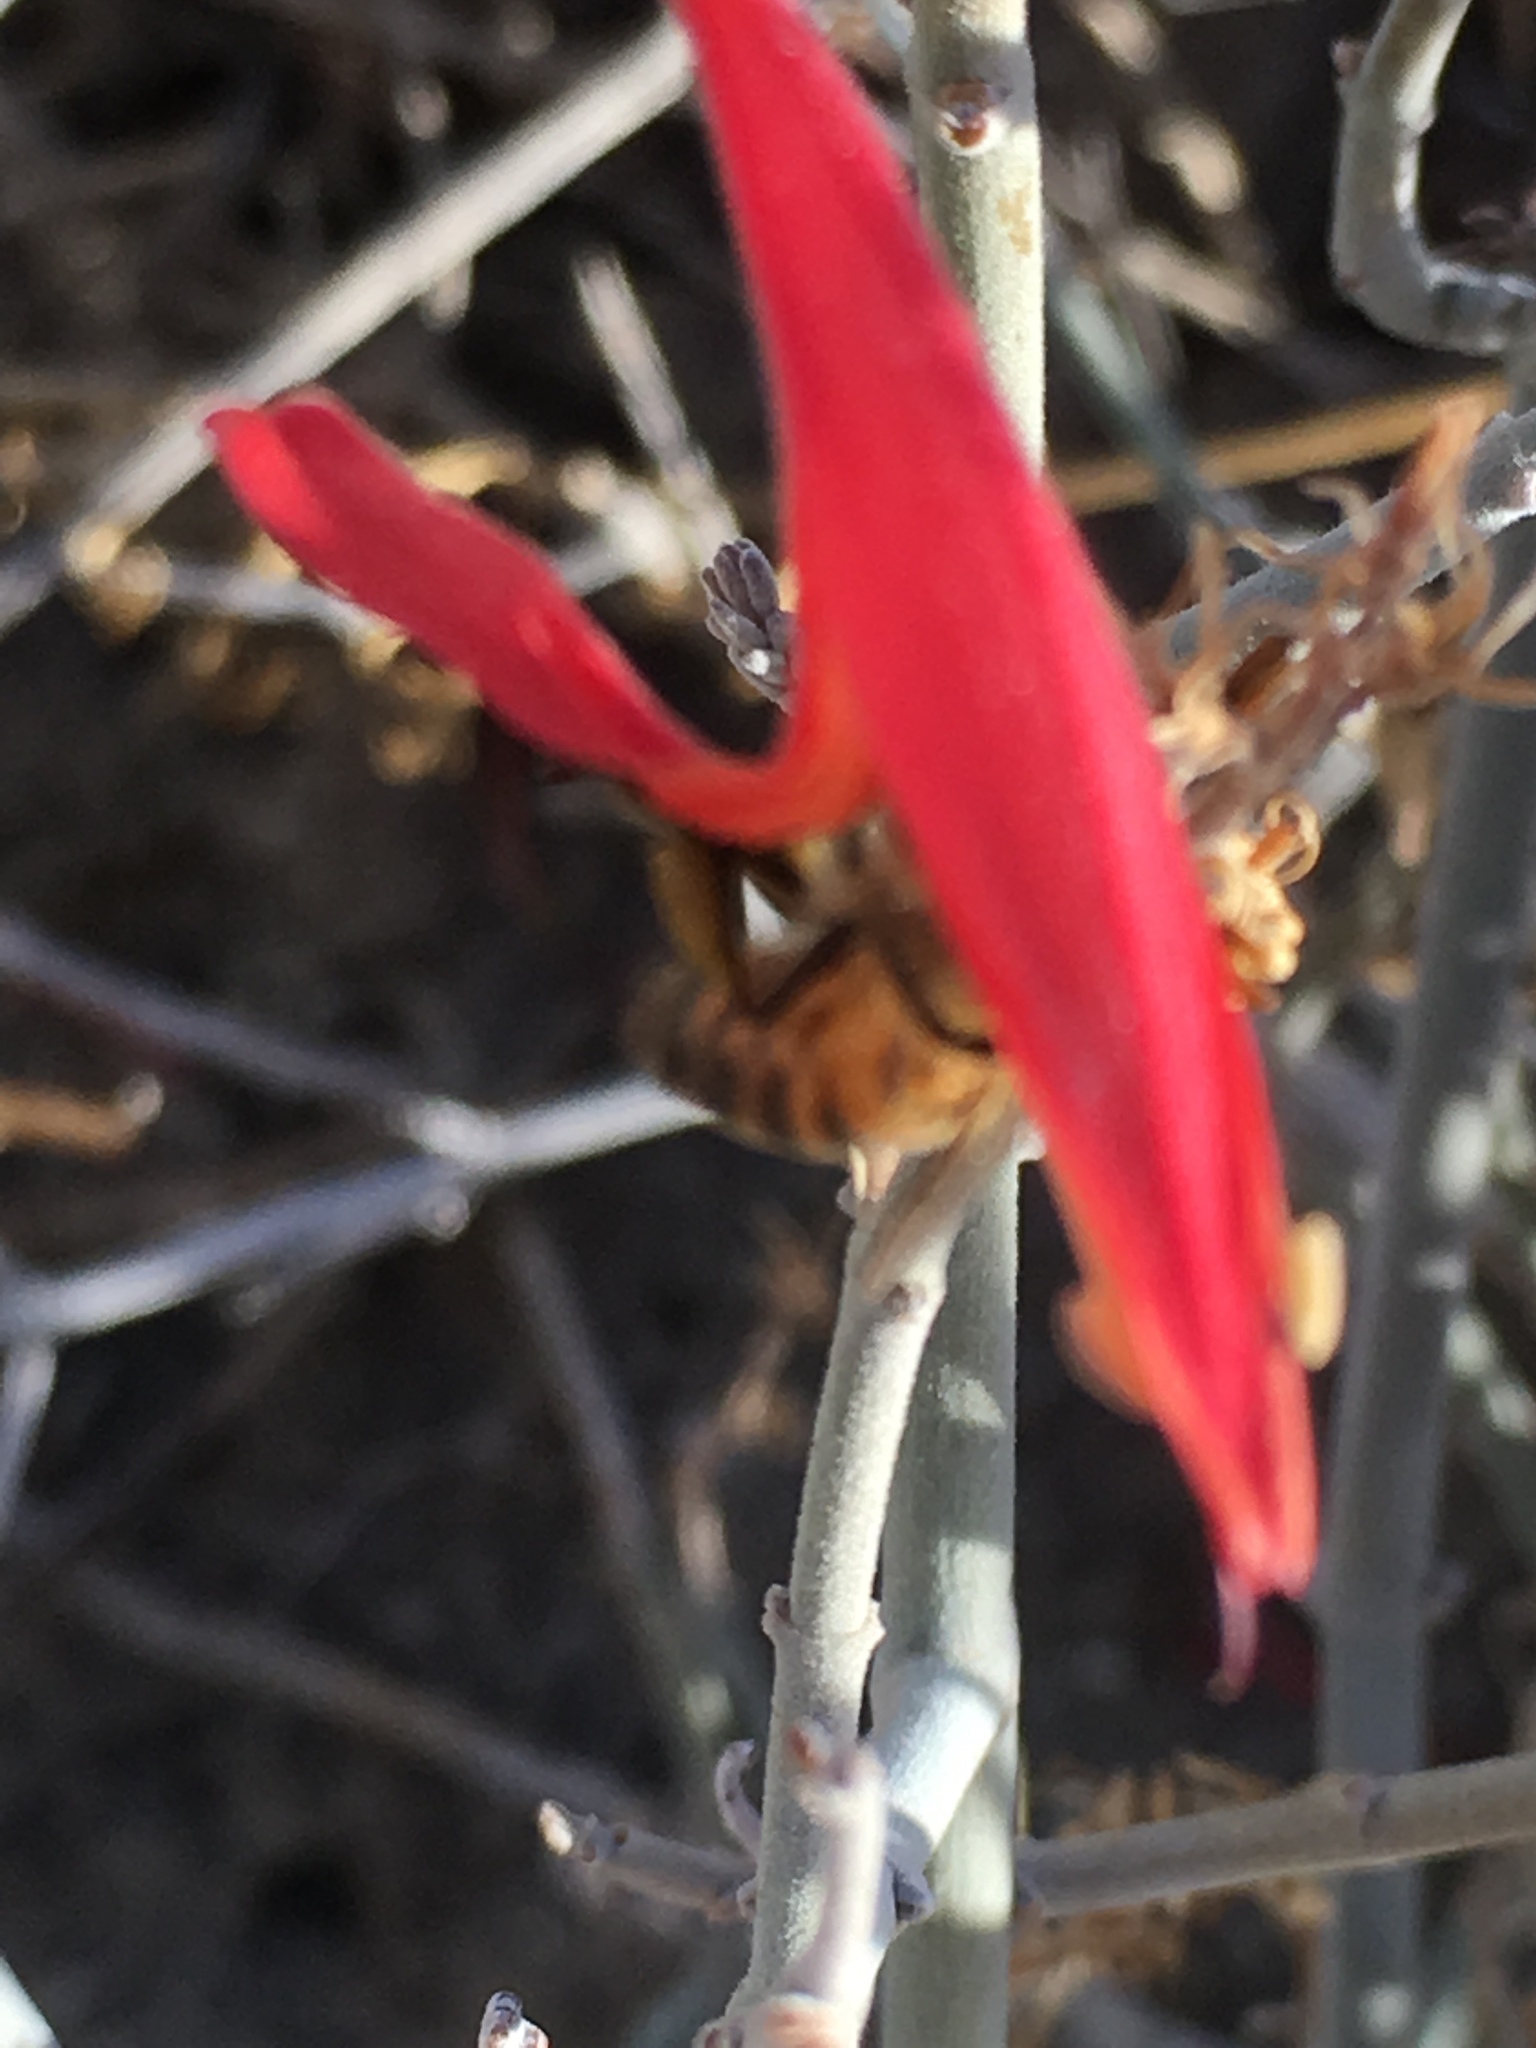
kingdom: Animalia
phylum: Arthropoda
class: Insecta
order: Hymenoptera
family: Apidae
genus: Apis
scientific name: Apis mellifera
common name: Honey bee
